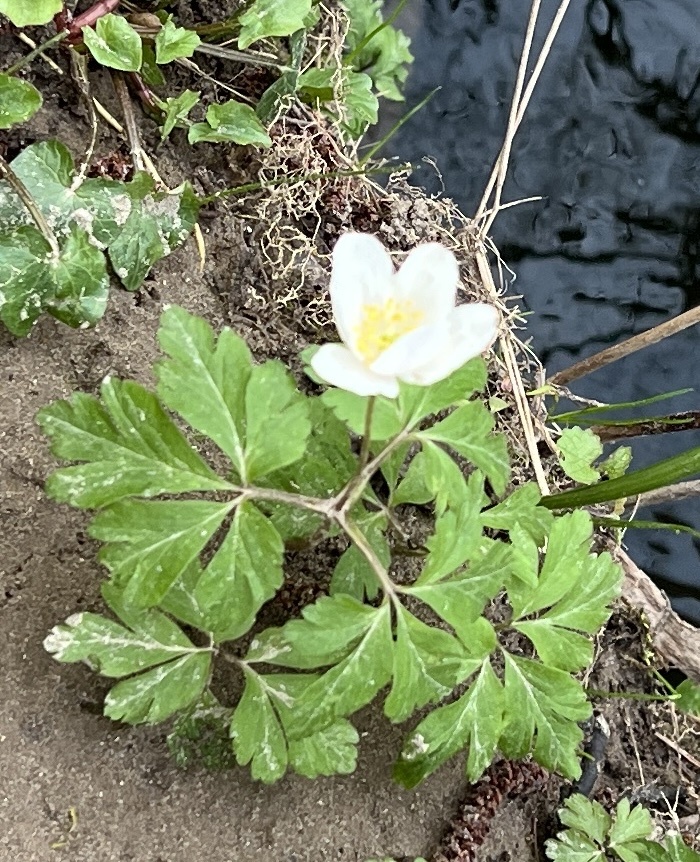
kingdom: Plantae
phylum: Tracheophyta
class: Magnoliopsida
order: Ranunculales
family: Ranunculaceae
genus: Anemone
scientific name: Anemone nemorosa
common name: Wood anemone
